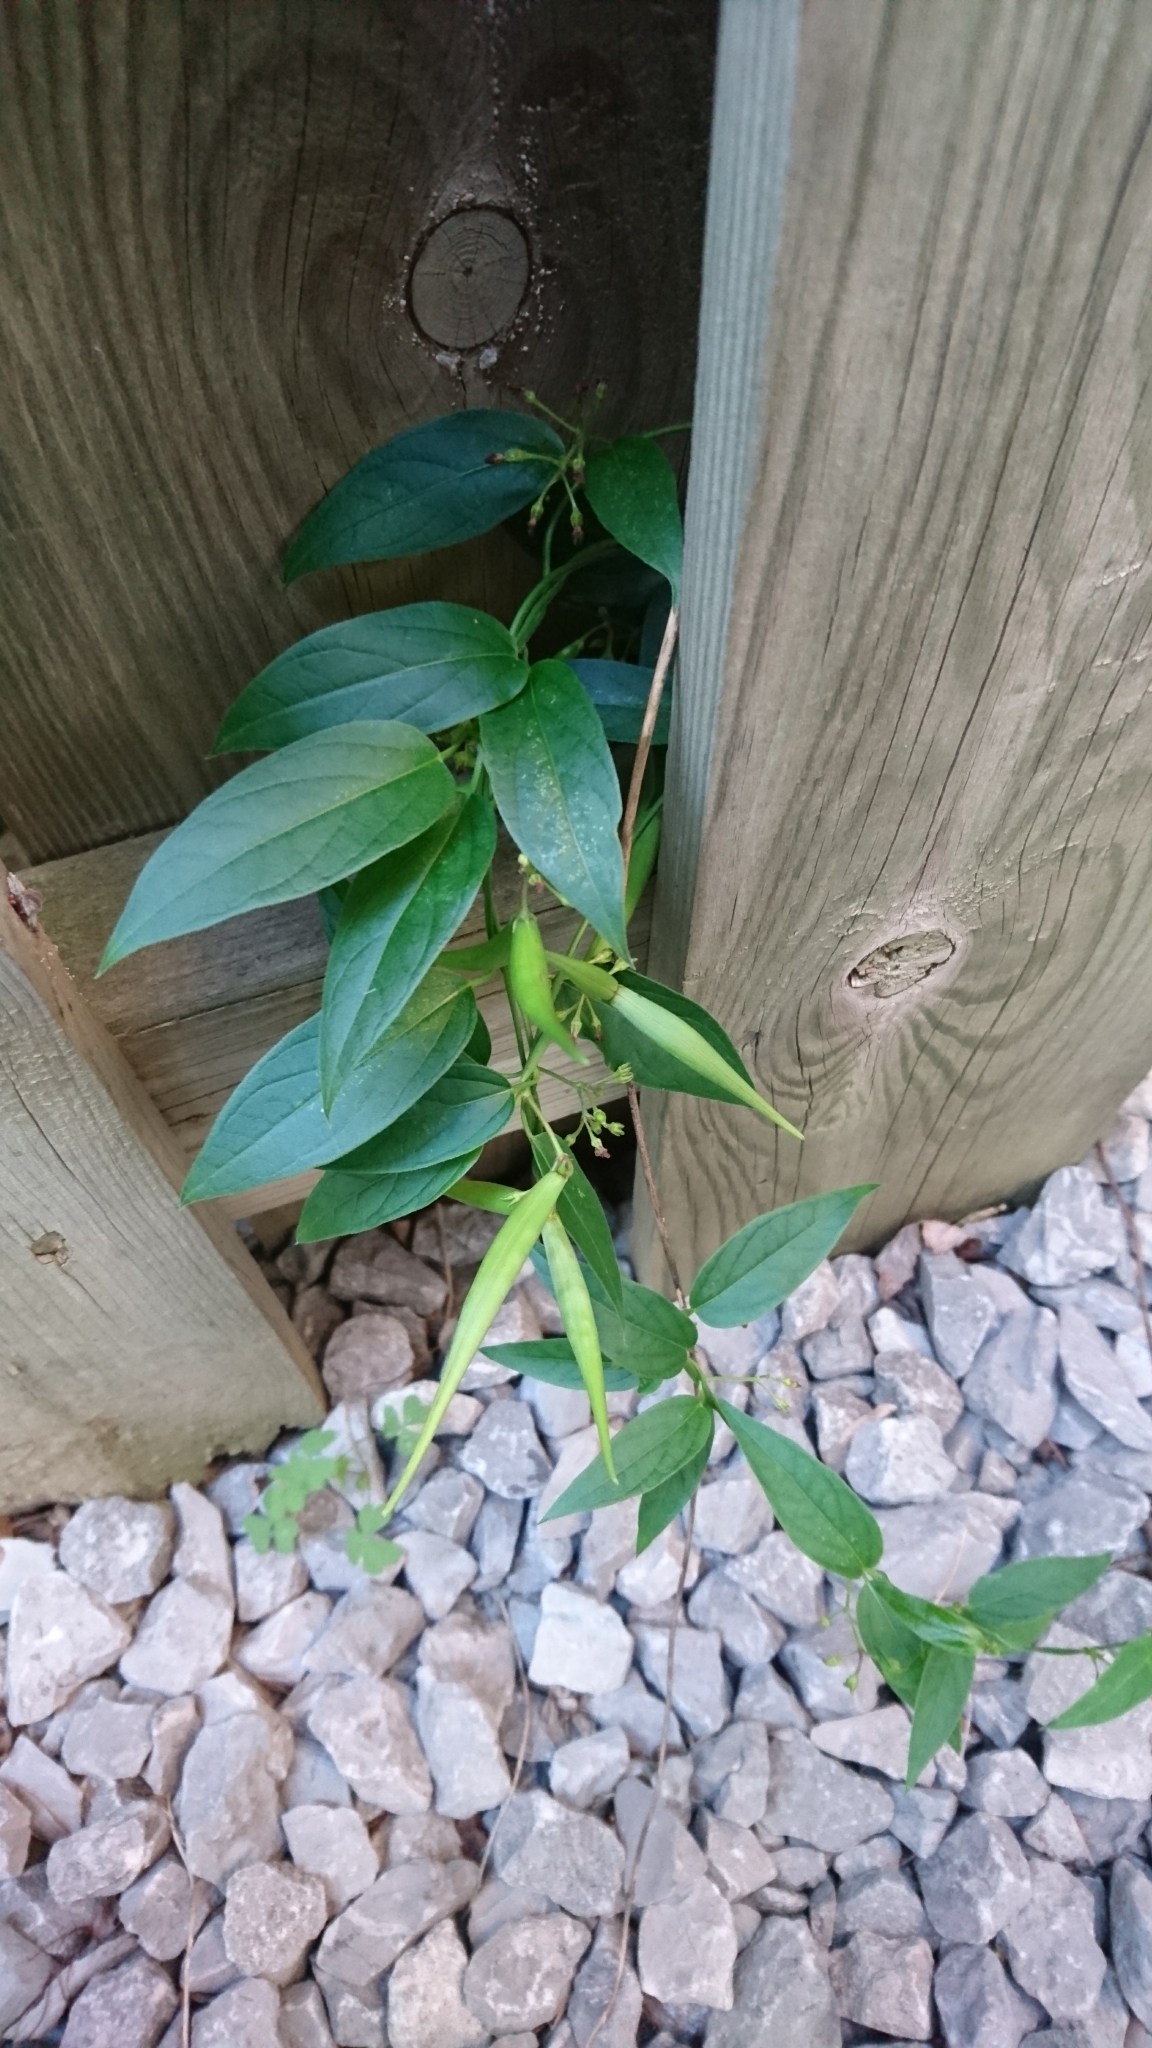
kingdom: Plantae
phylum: Tracheophyta
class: Magnoliopsida
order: Gentianales
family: Apocynaceae
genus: Vincetoxicum
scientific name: Vincetoxicum rossicum
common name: Dog-strangling vine
